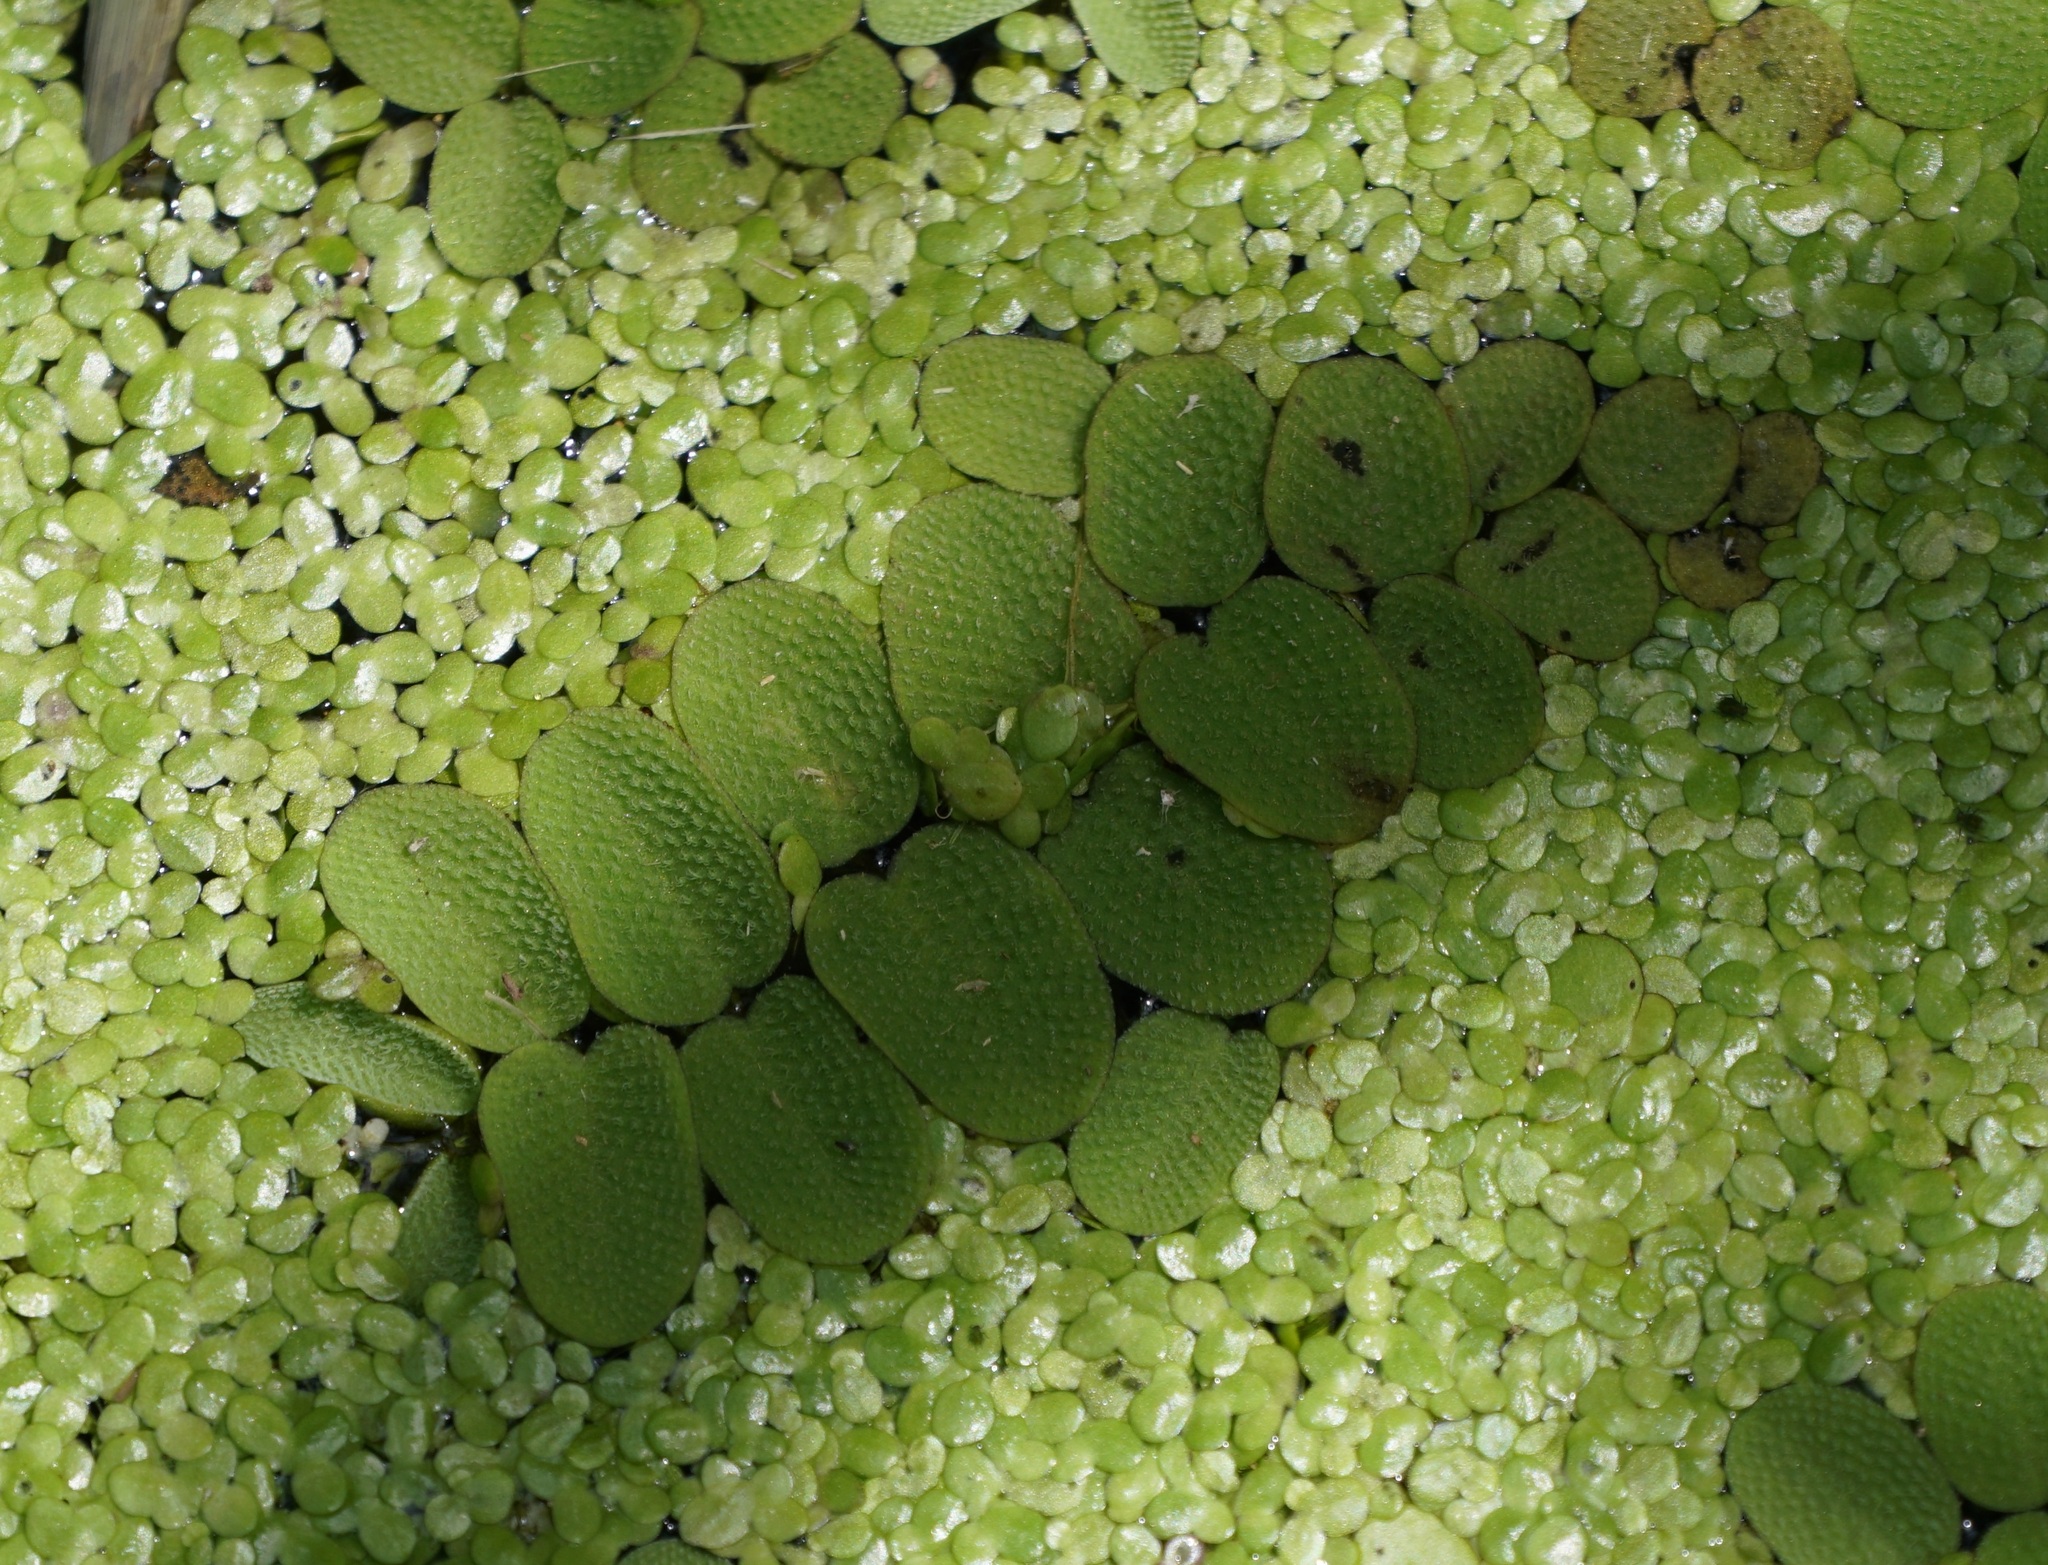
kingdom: Plantae
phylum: Tracheophyta
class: Polypodiopsida
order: Salviniales
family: Salviniaceae
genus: Salvinia
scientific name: Salvinia natans
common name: Floating fern
